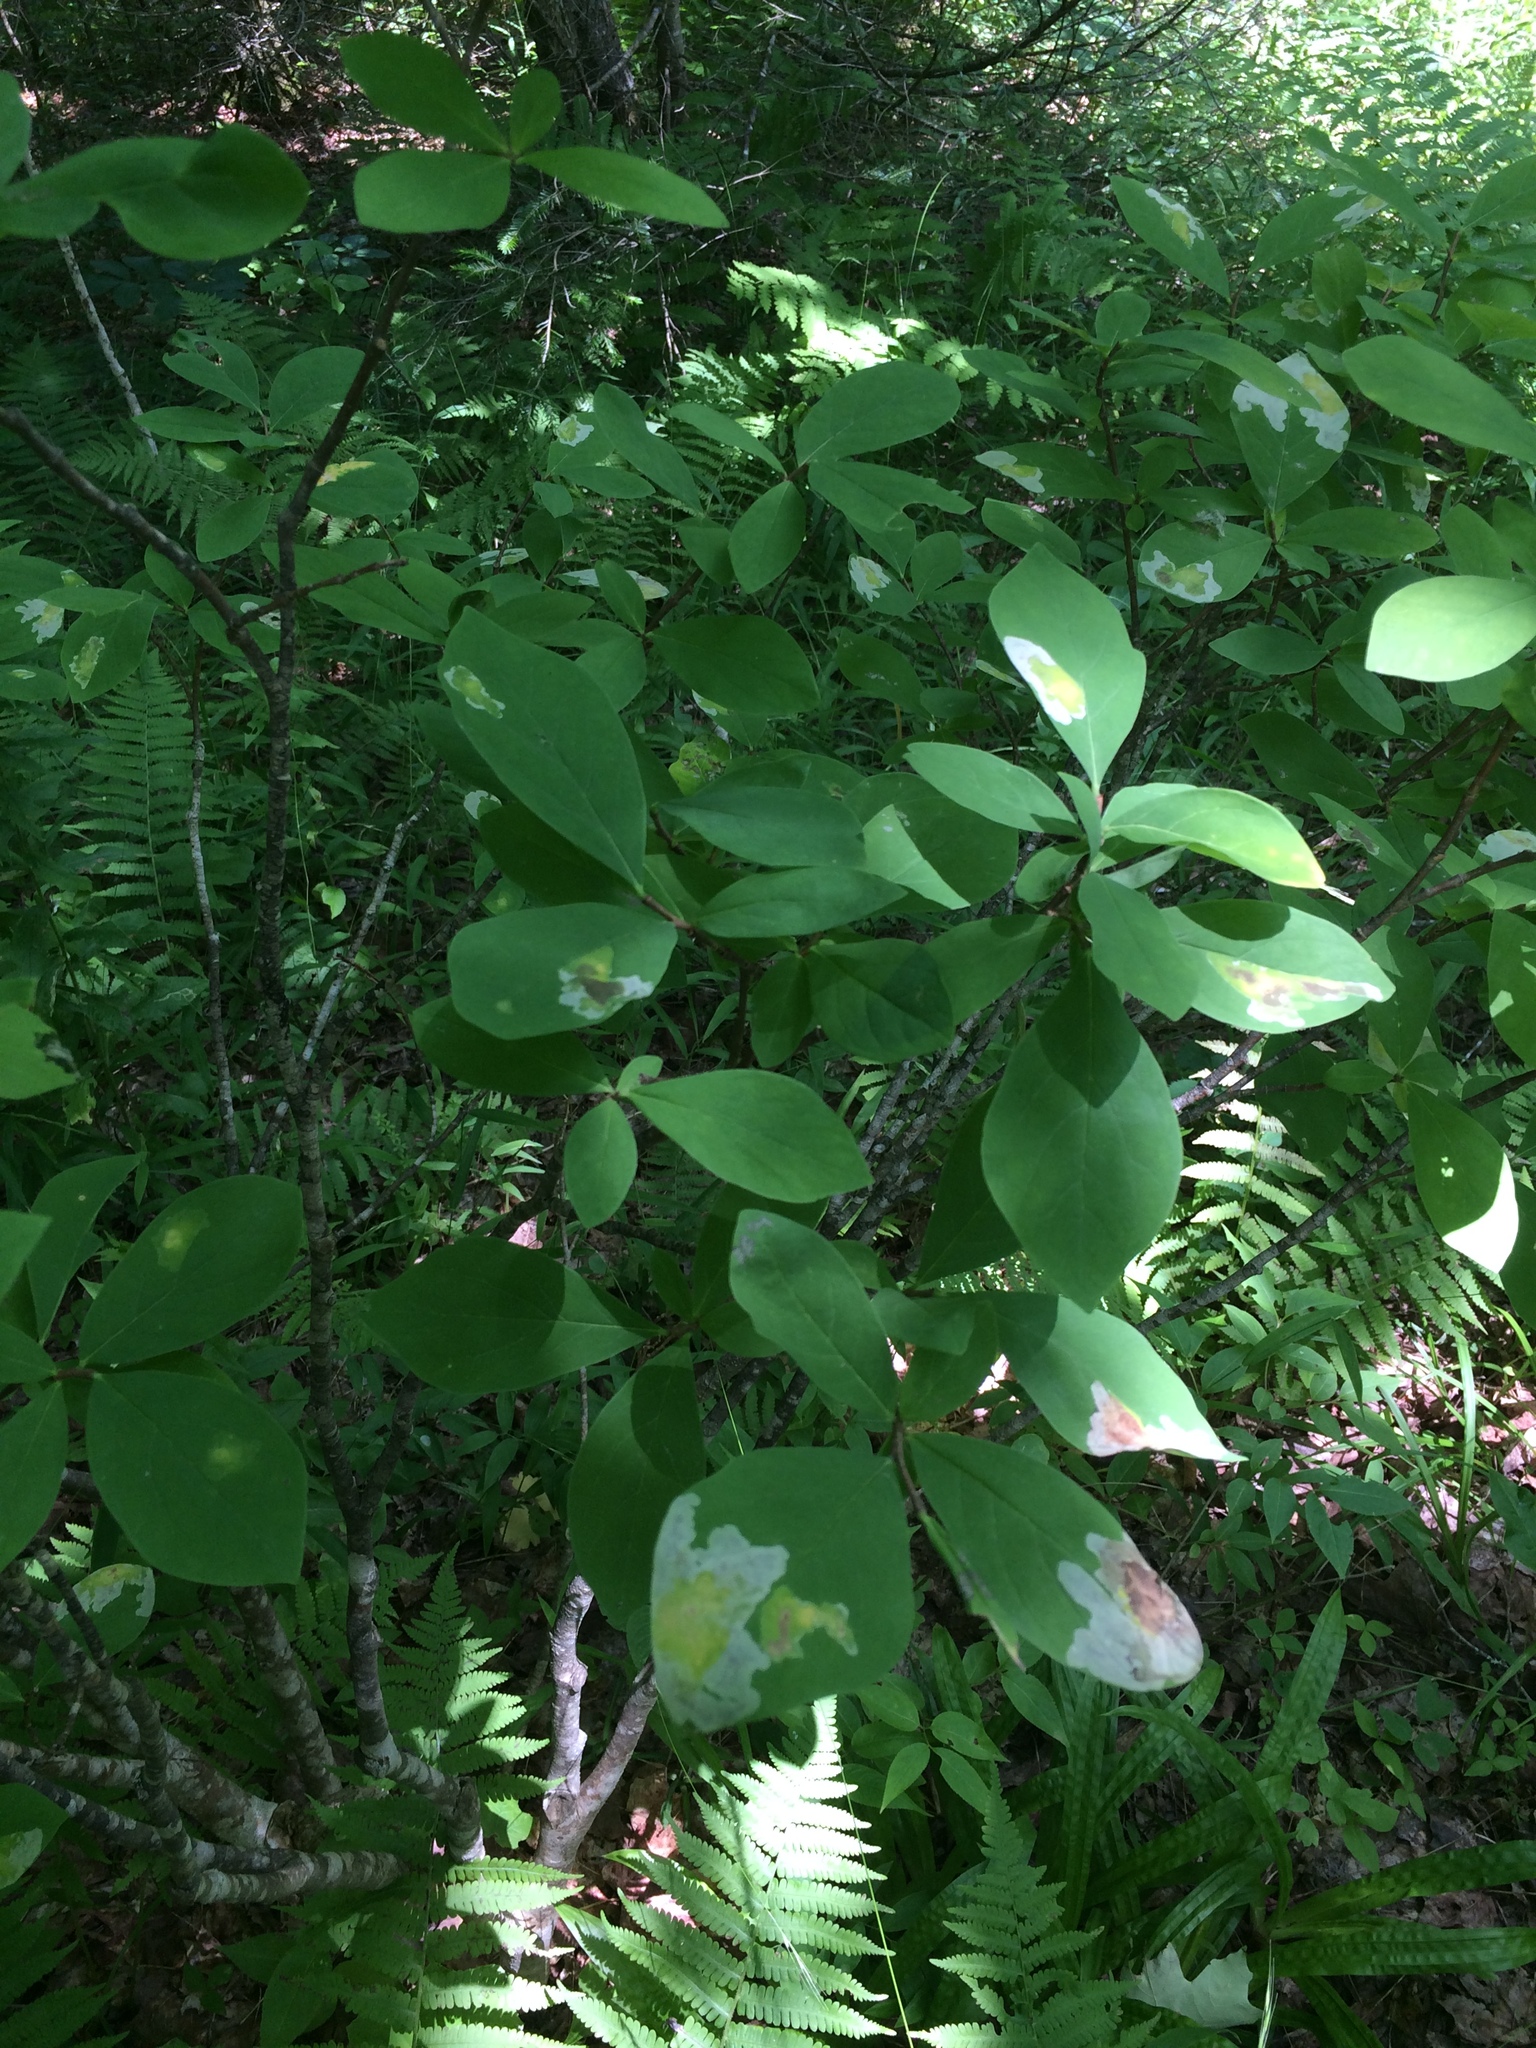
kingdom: Plantae
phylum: Tracheophyta
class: Magnoliopsida
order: Malvales
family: Thymelaeaceae
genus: Dirca
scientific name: Dirca palustris
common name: Leatherwood
